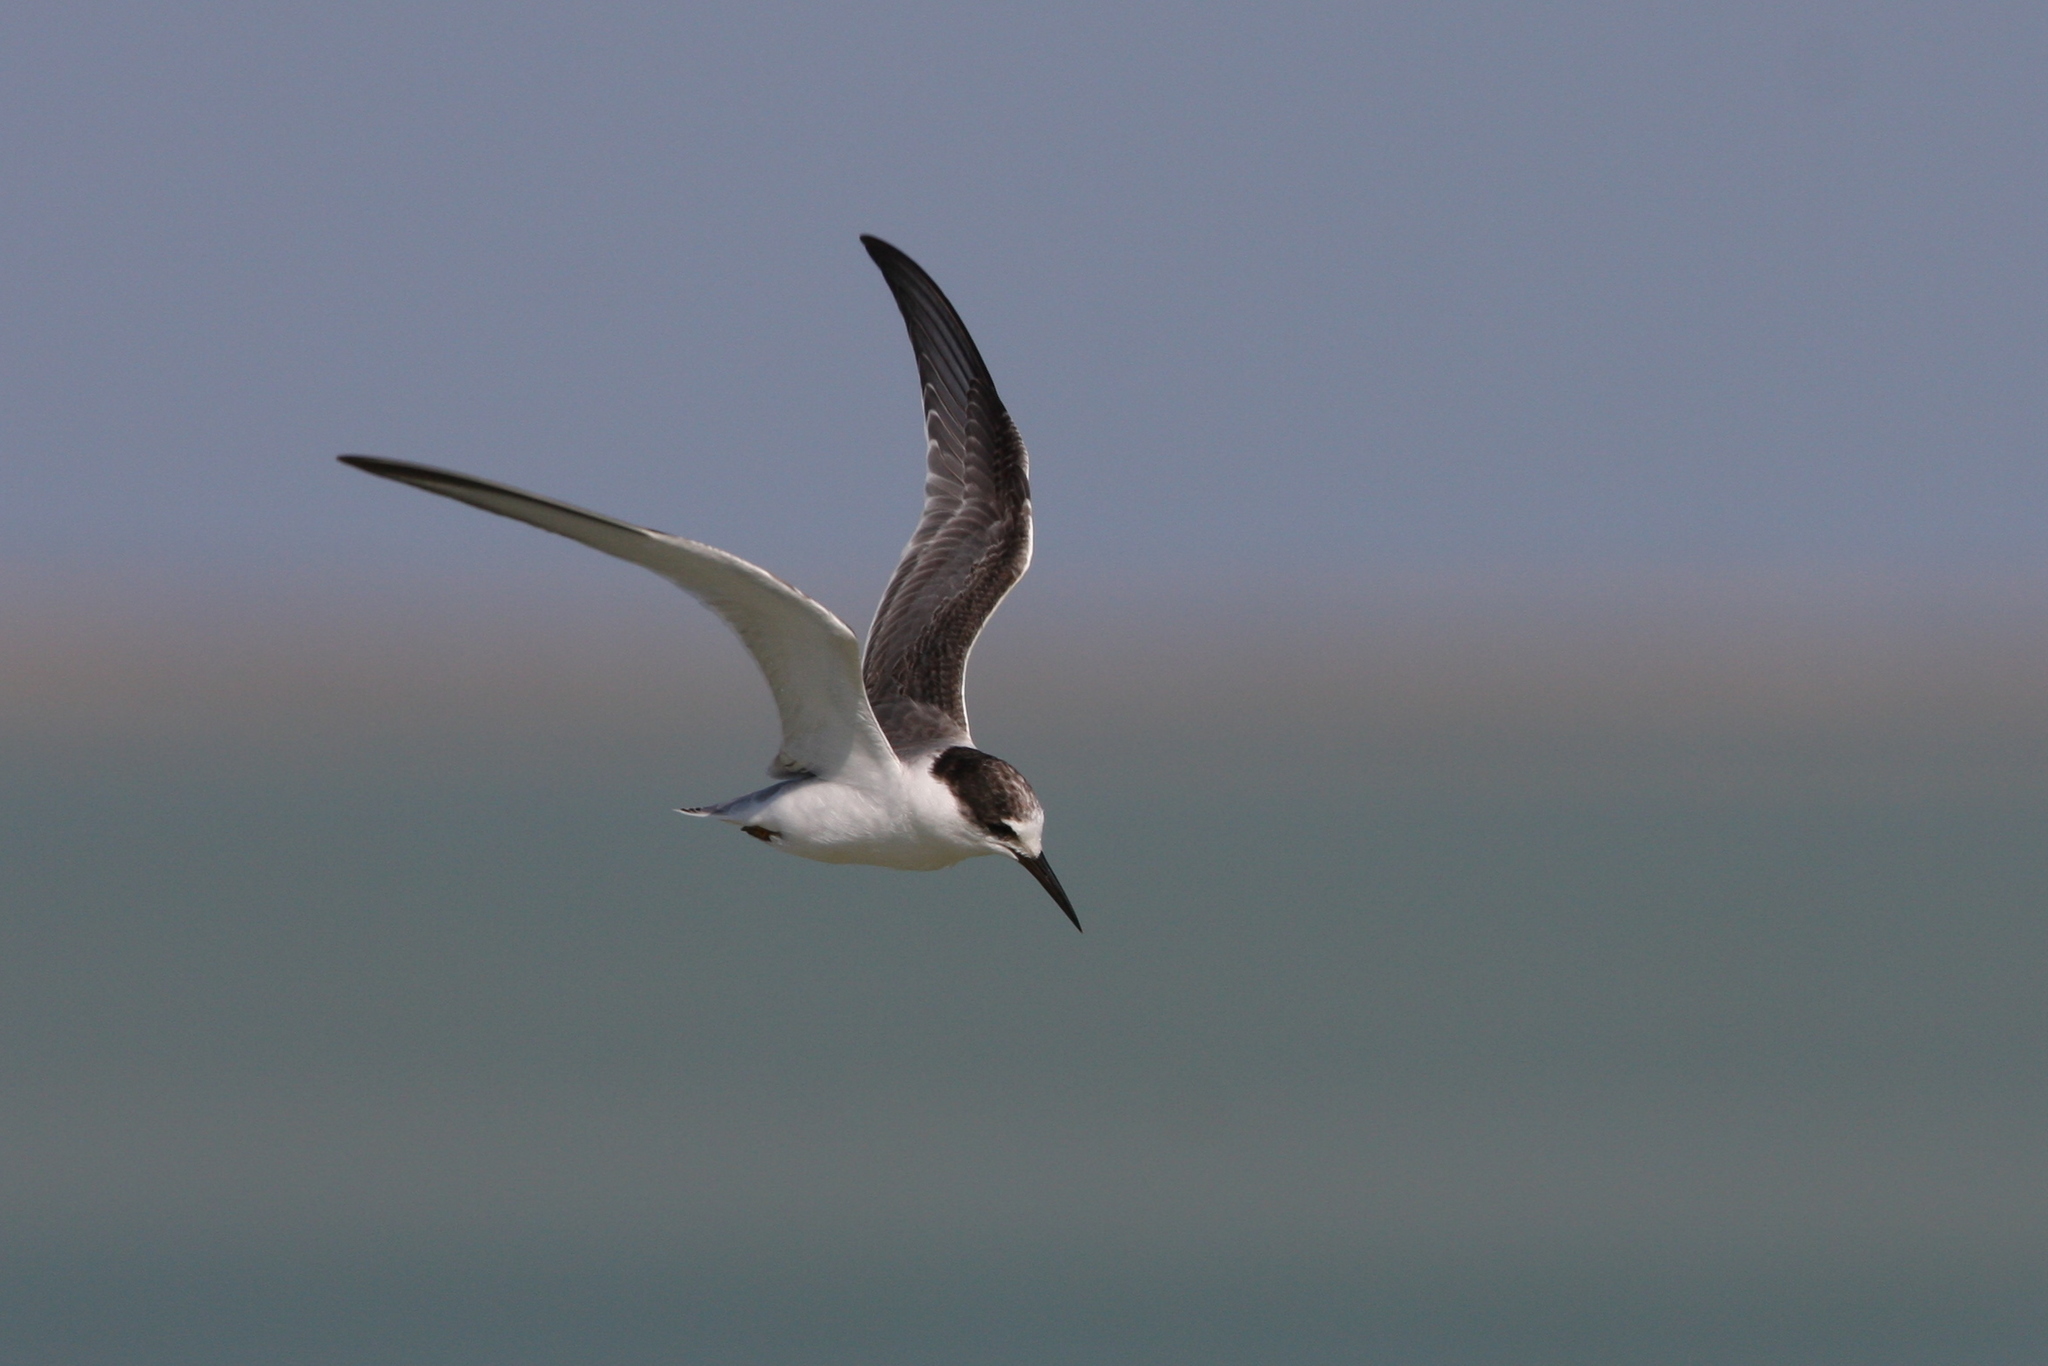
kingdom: Animalia
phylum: Chordata
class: Aves
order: Charadriiformes
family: Laridae
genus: Sternula
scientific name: Sternula albifrons
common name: Little tern
